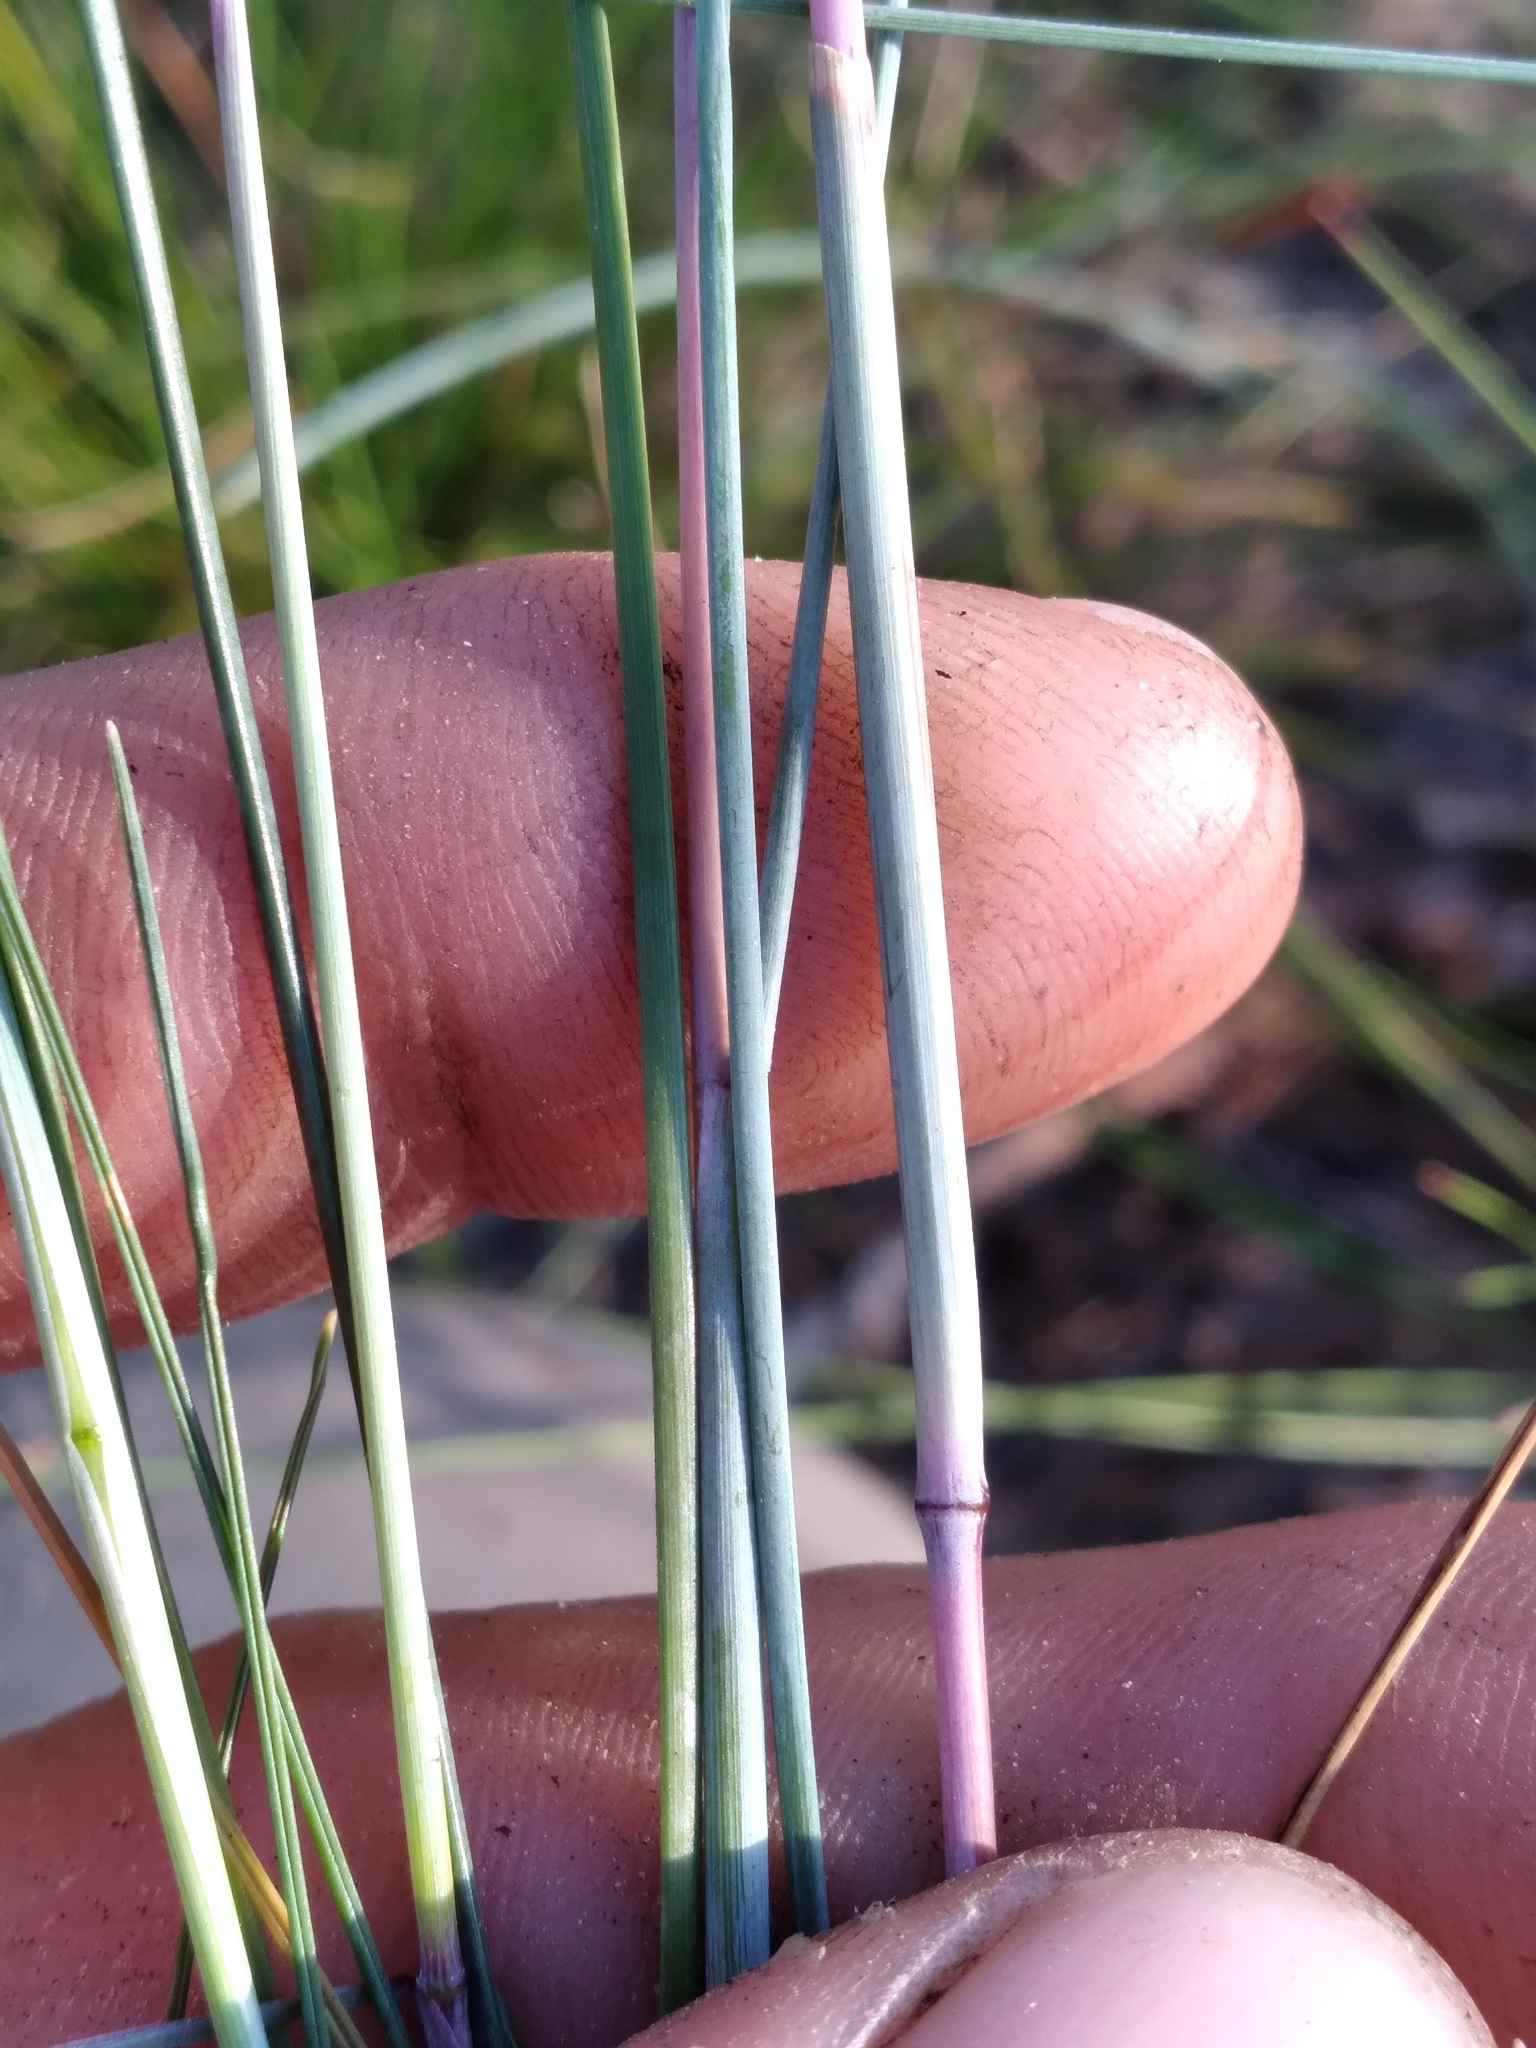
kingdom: Plantae
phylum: Tracheophyta
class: Liliopsida
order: Poales
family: Poaceae
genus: Sporobolus
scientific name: Sporobolus junceus
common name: Lizard grass
